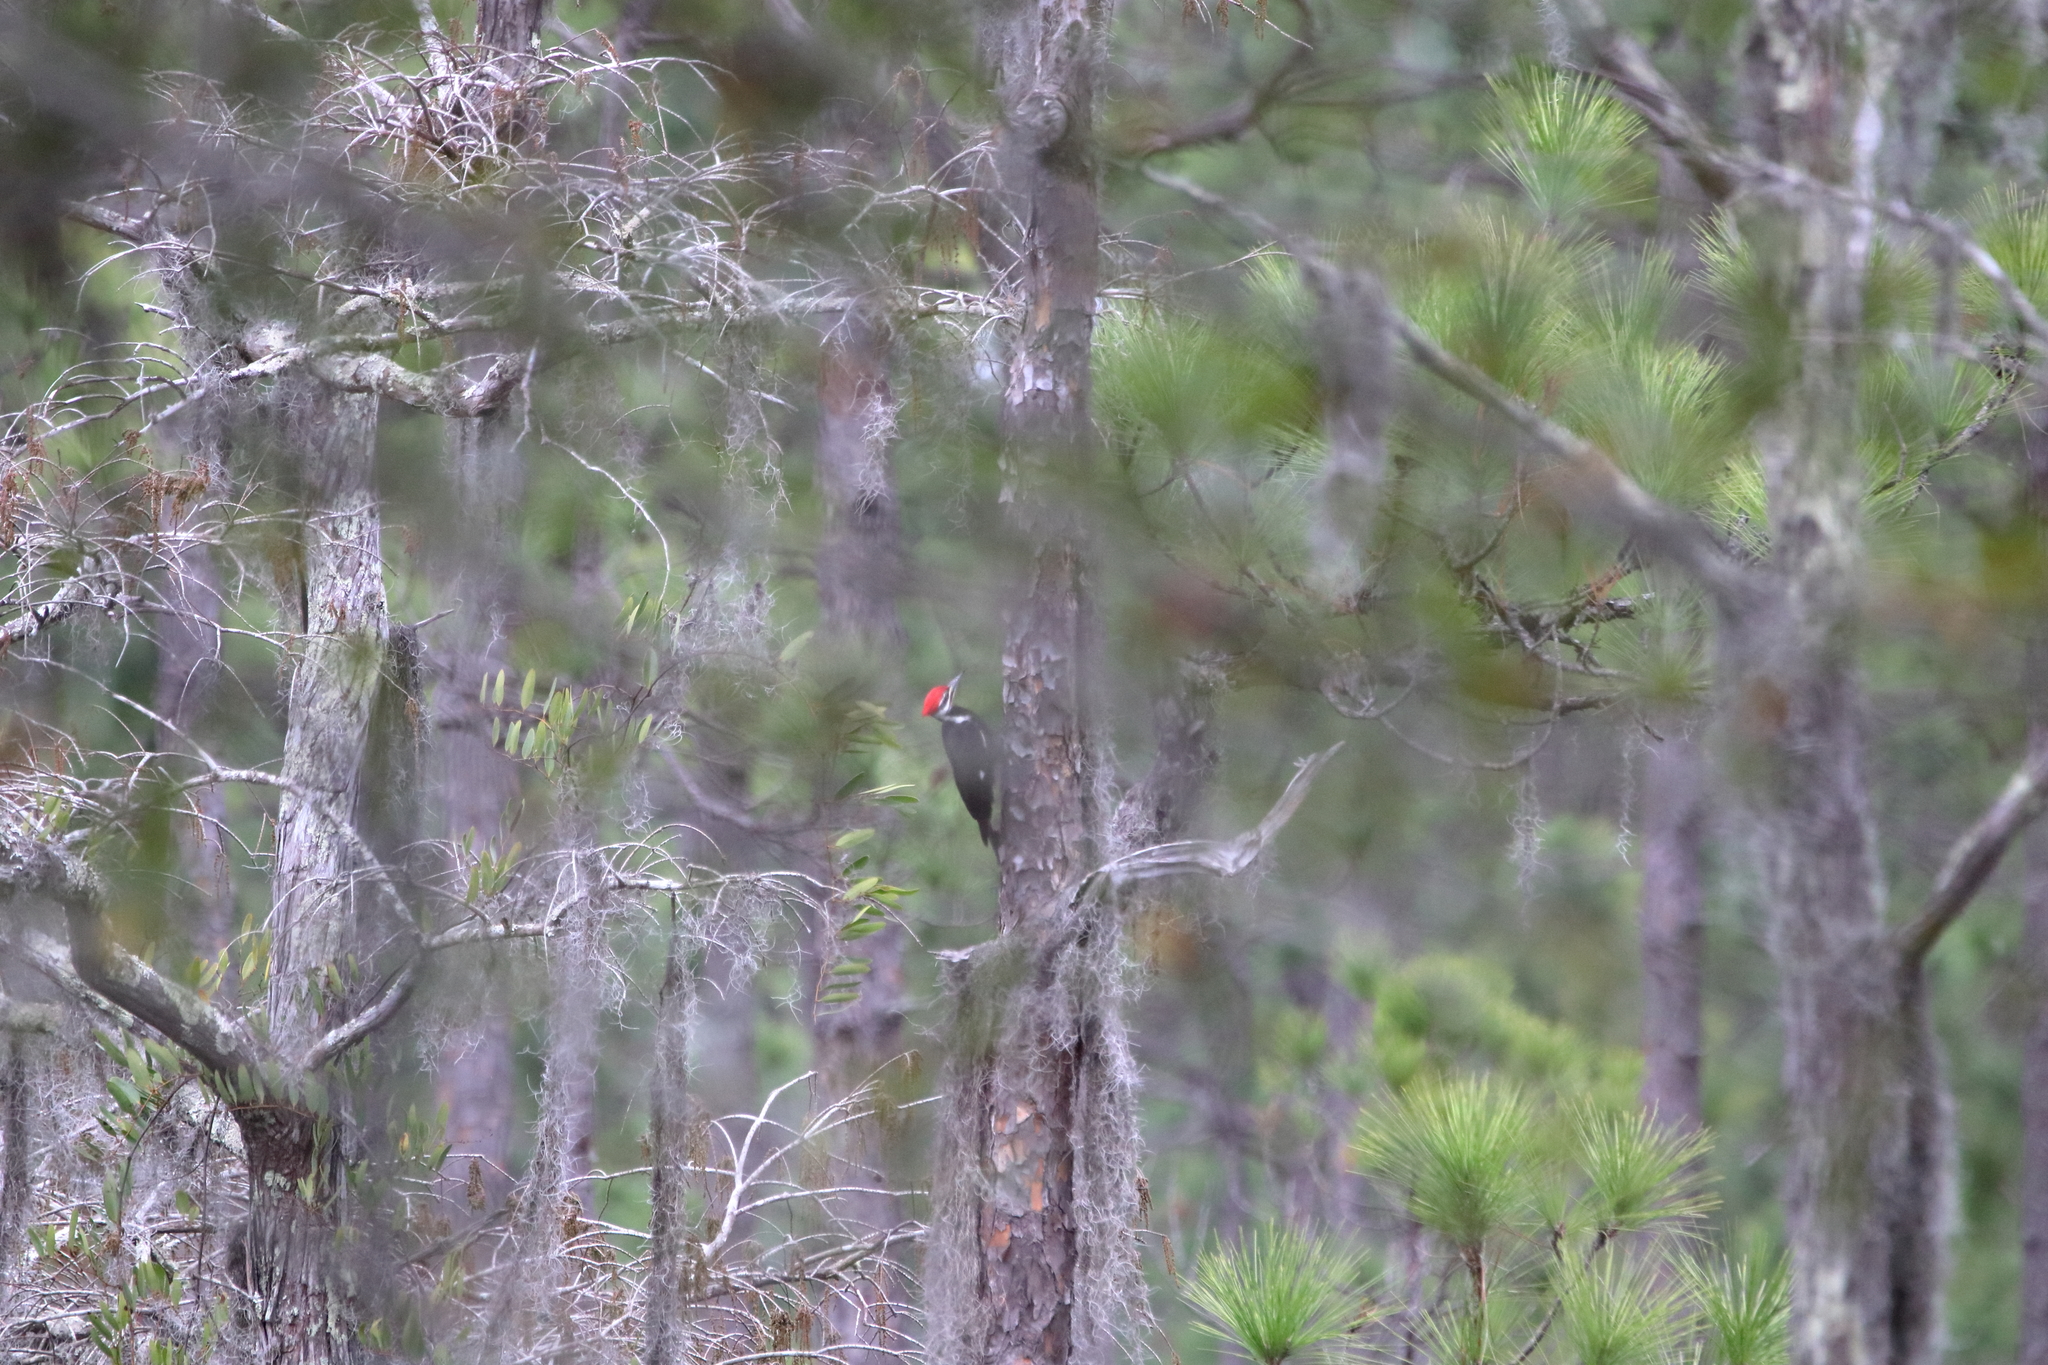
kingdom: Animalia
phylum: Chordata
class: Aves
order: Piciformes
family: Picidae
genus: Dryocopus
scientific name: Dryocopus pileatus
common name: Pileated woodpecker
